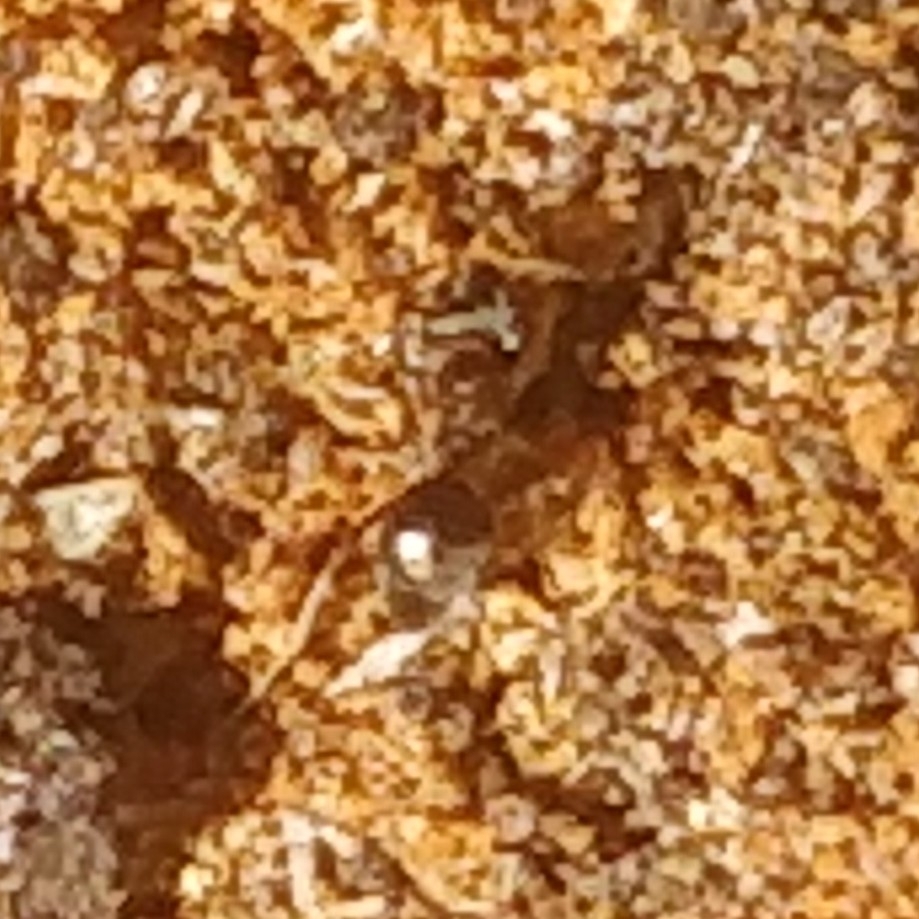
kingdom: Animalia
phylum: Arthropoda
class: Insecta
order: Hymenoptera
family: Formicidae
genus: Lasius
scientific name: Lasius americanus
